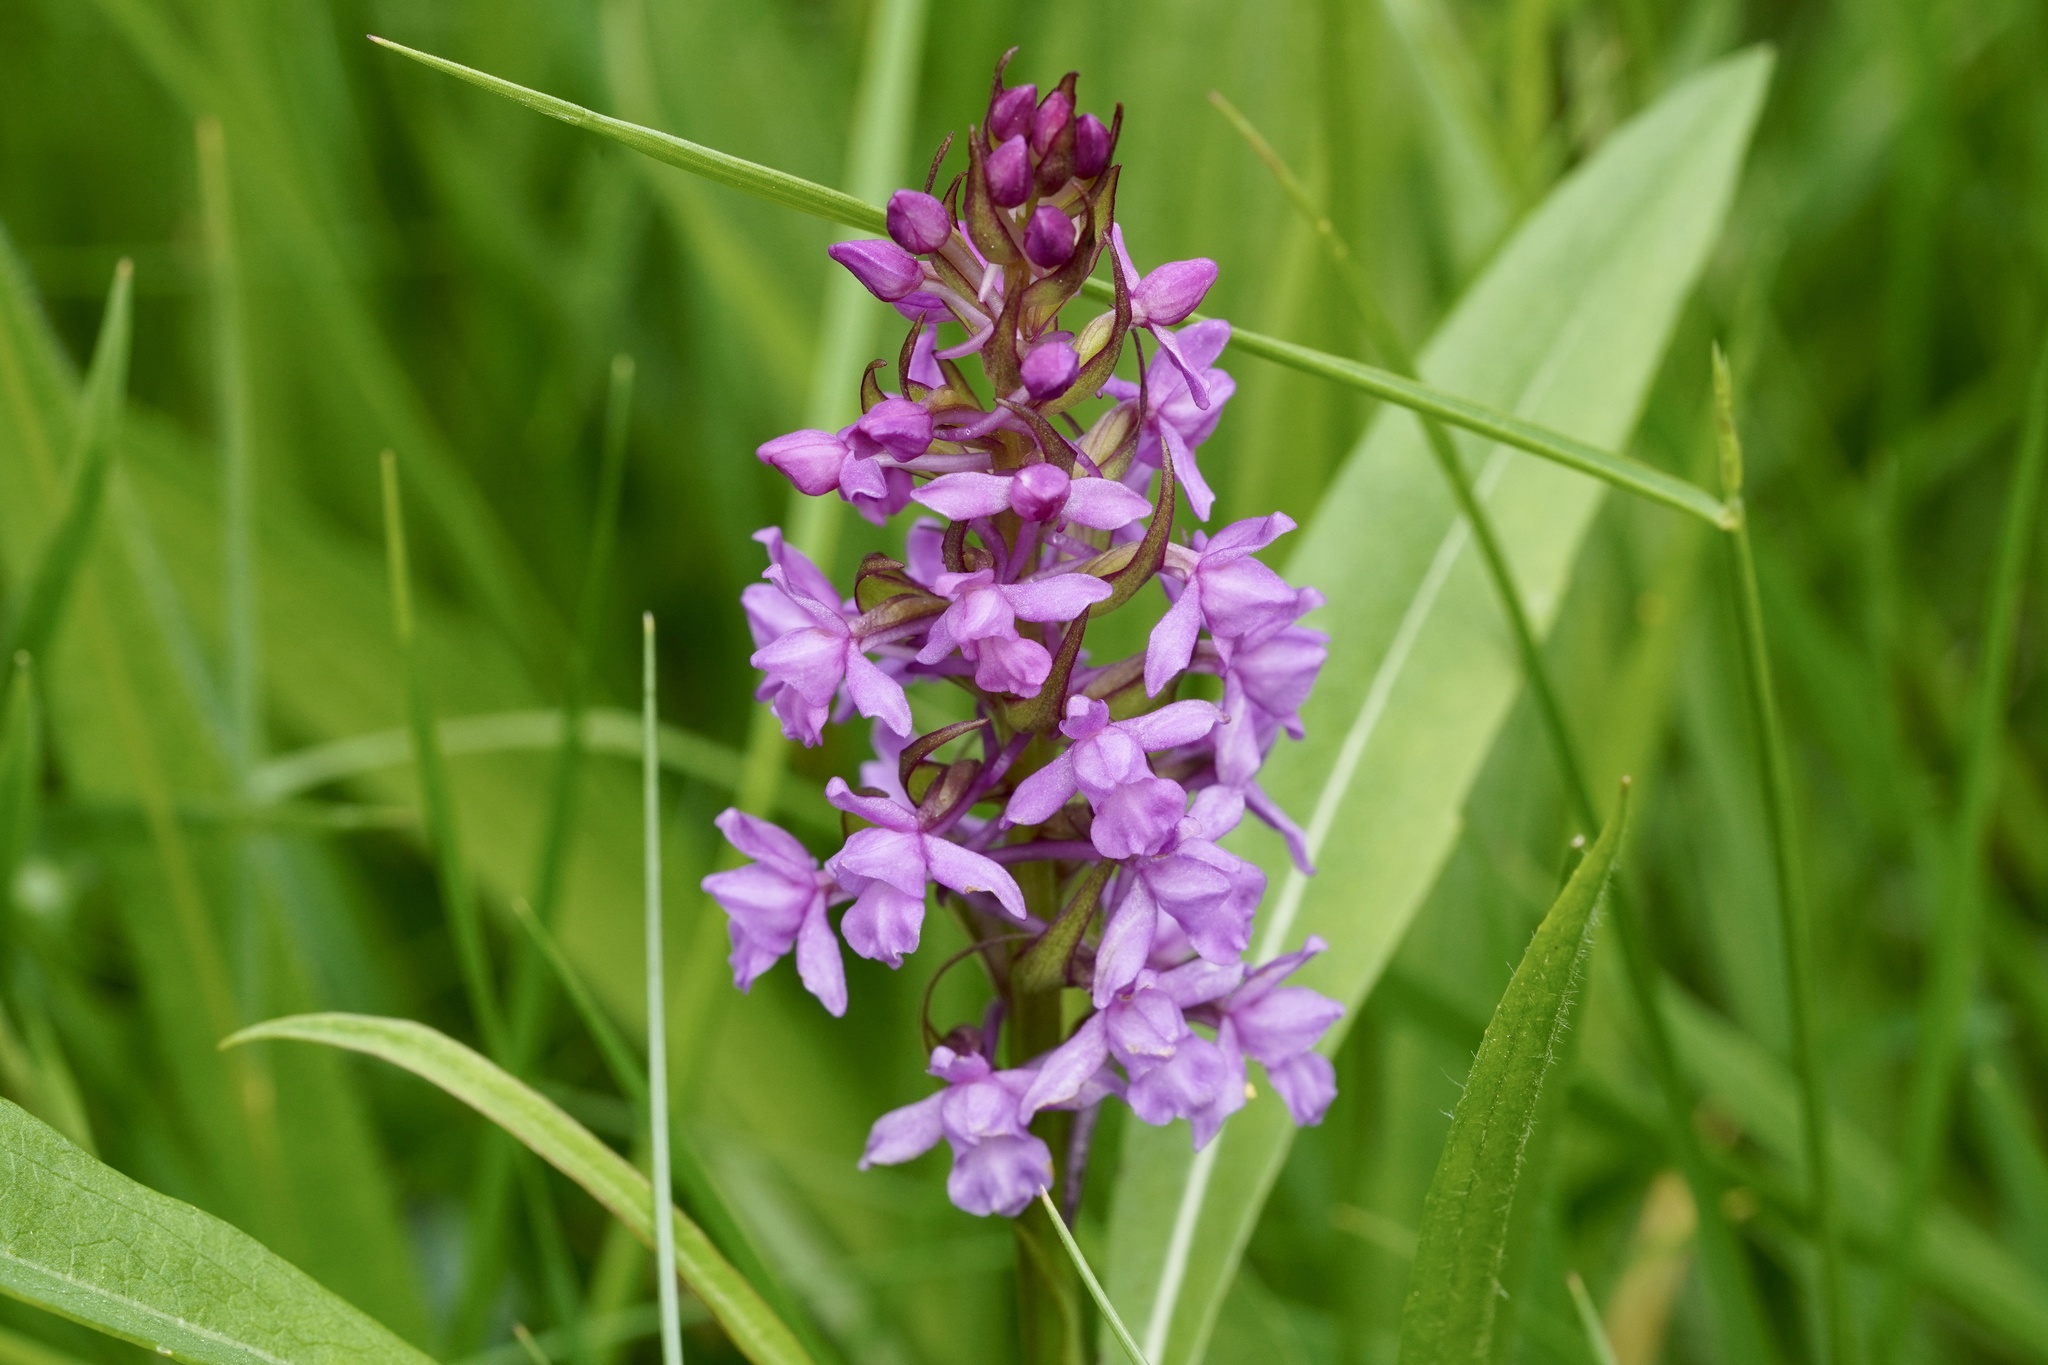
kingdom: Plantae
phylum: Tracheophyta
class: Liliopsida
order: Asparagales
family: Orchidaceae
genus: Gymnadenia
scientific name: Gymnadenia conopsea
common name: Fragrant orchid
